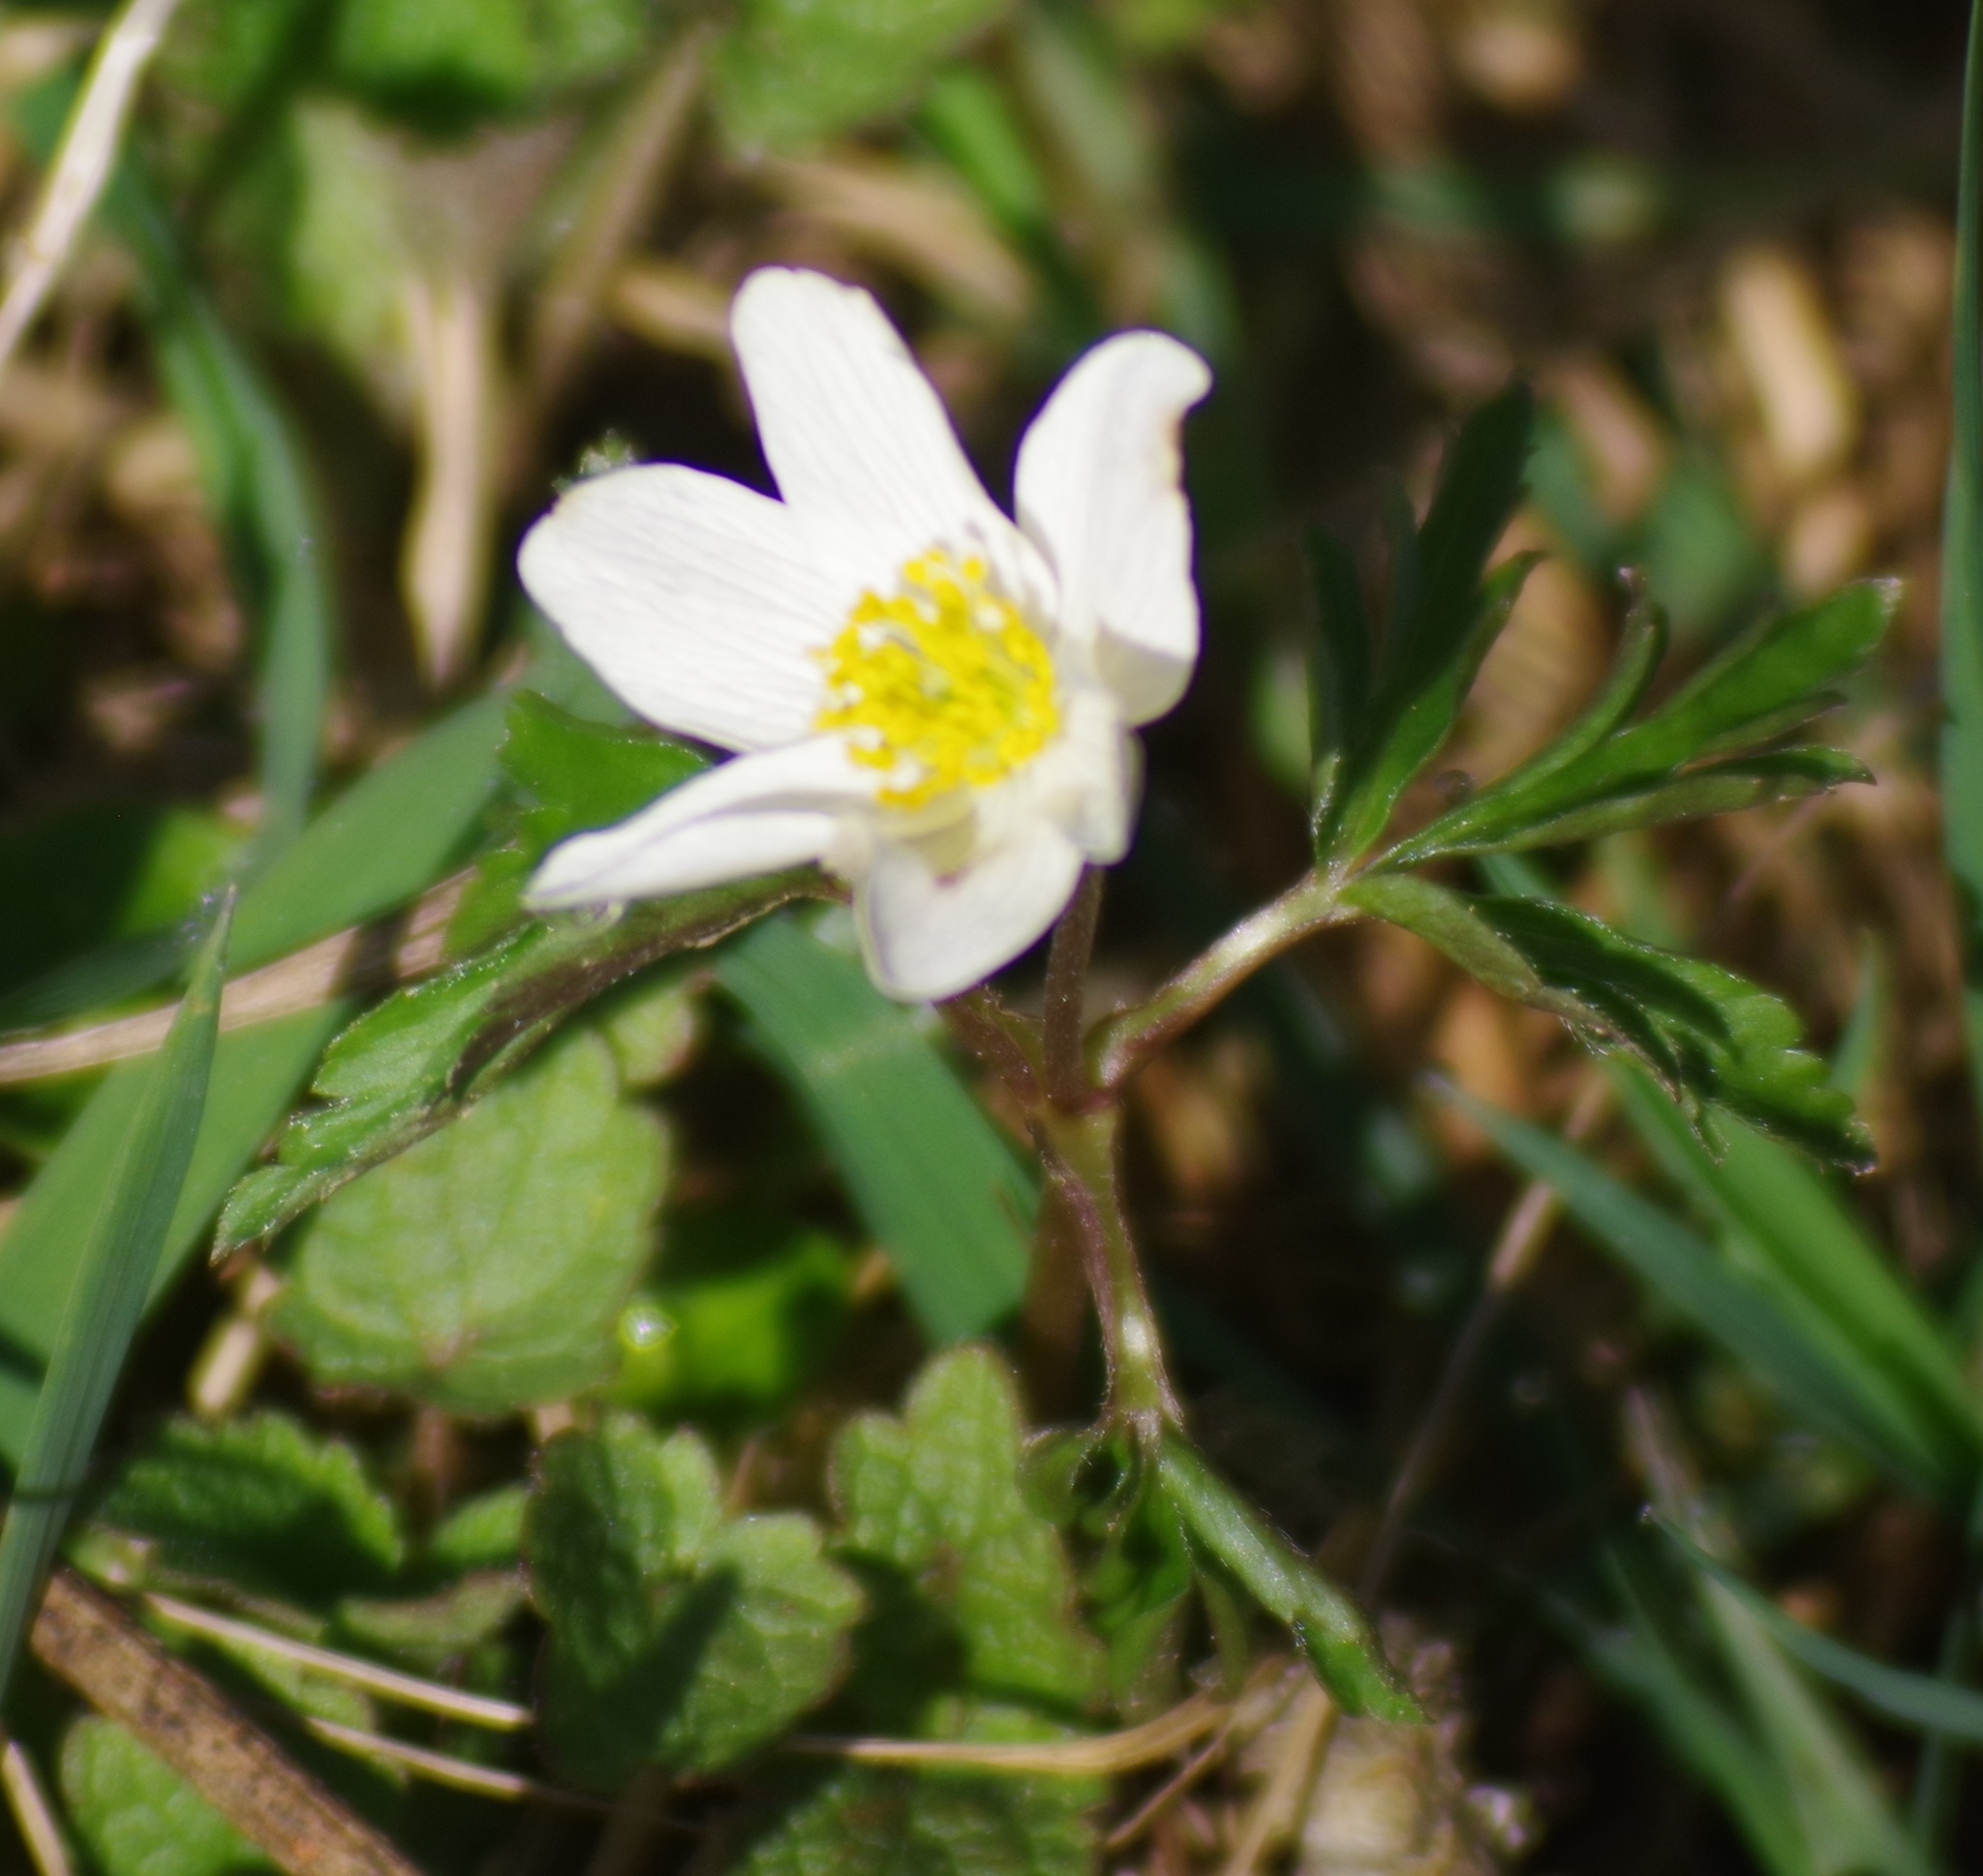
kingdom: Plantae
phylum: Tracheophyta
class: Magnoliopsida
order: Ranunculales
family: Ranunculaceae
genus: Anemone
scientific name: Anemone nemorosa
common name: Wood anemone
